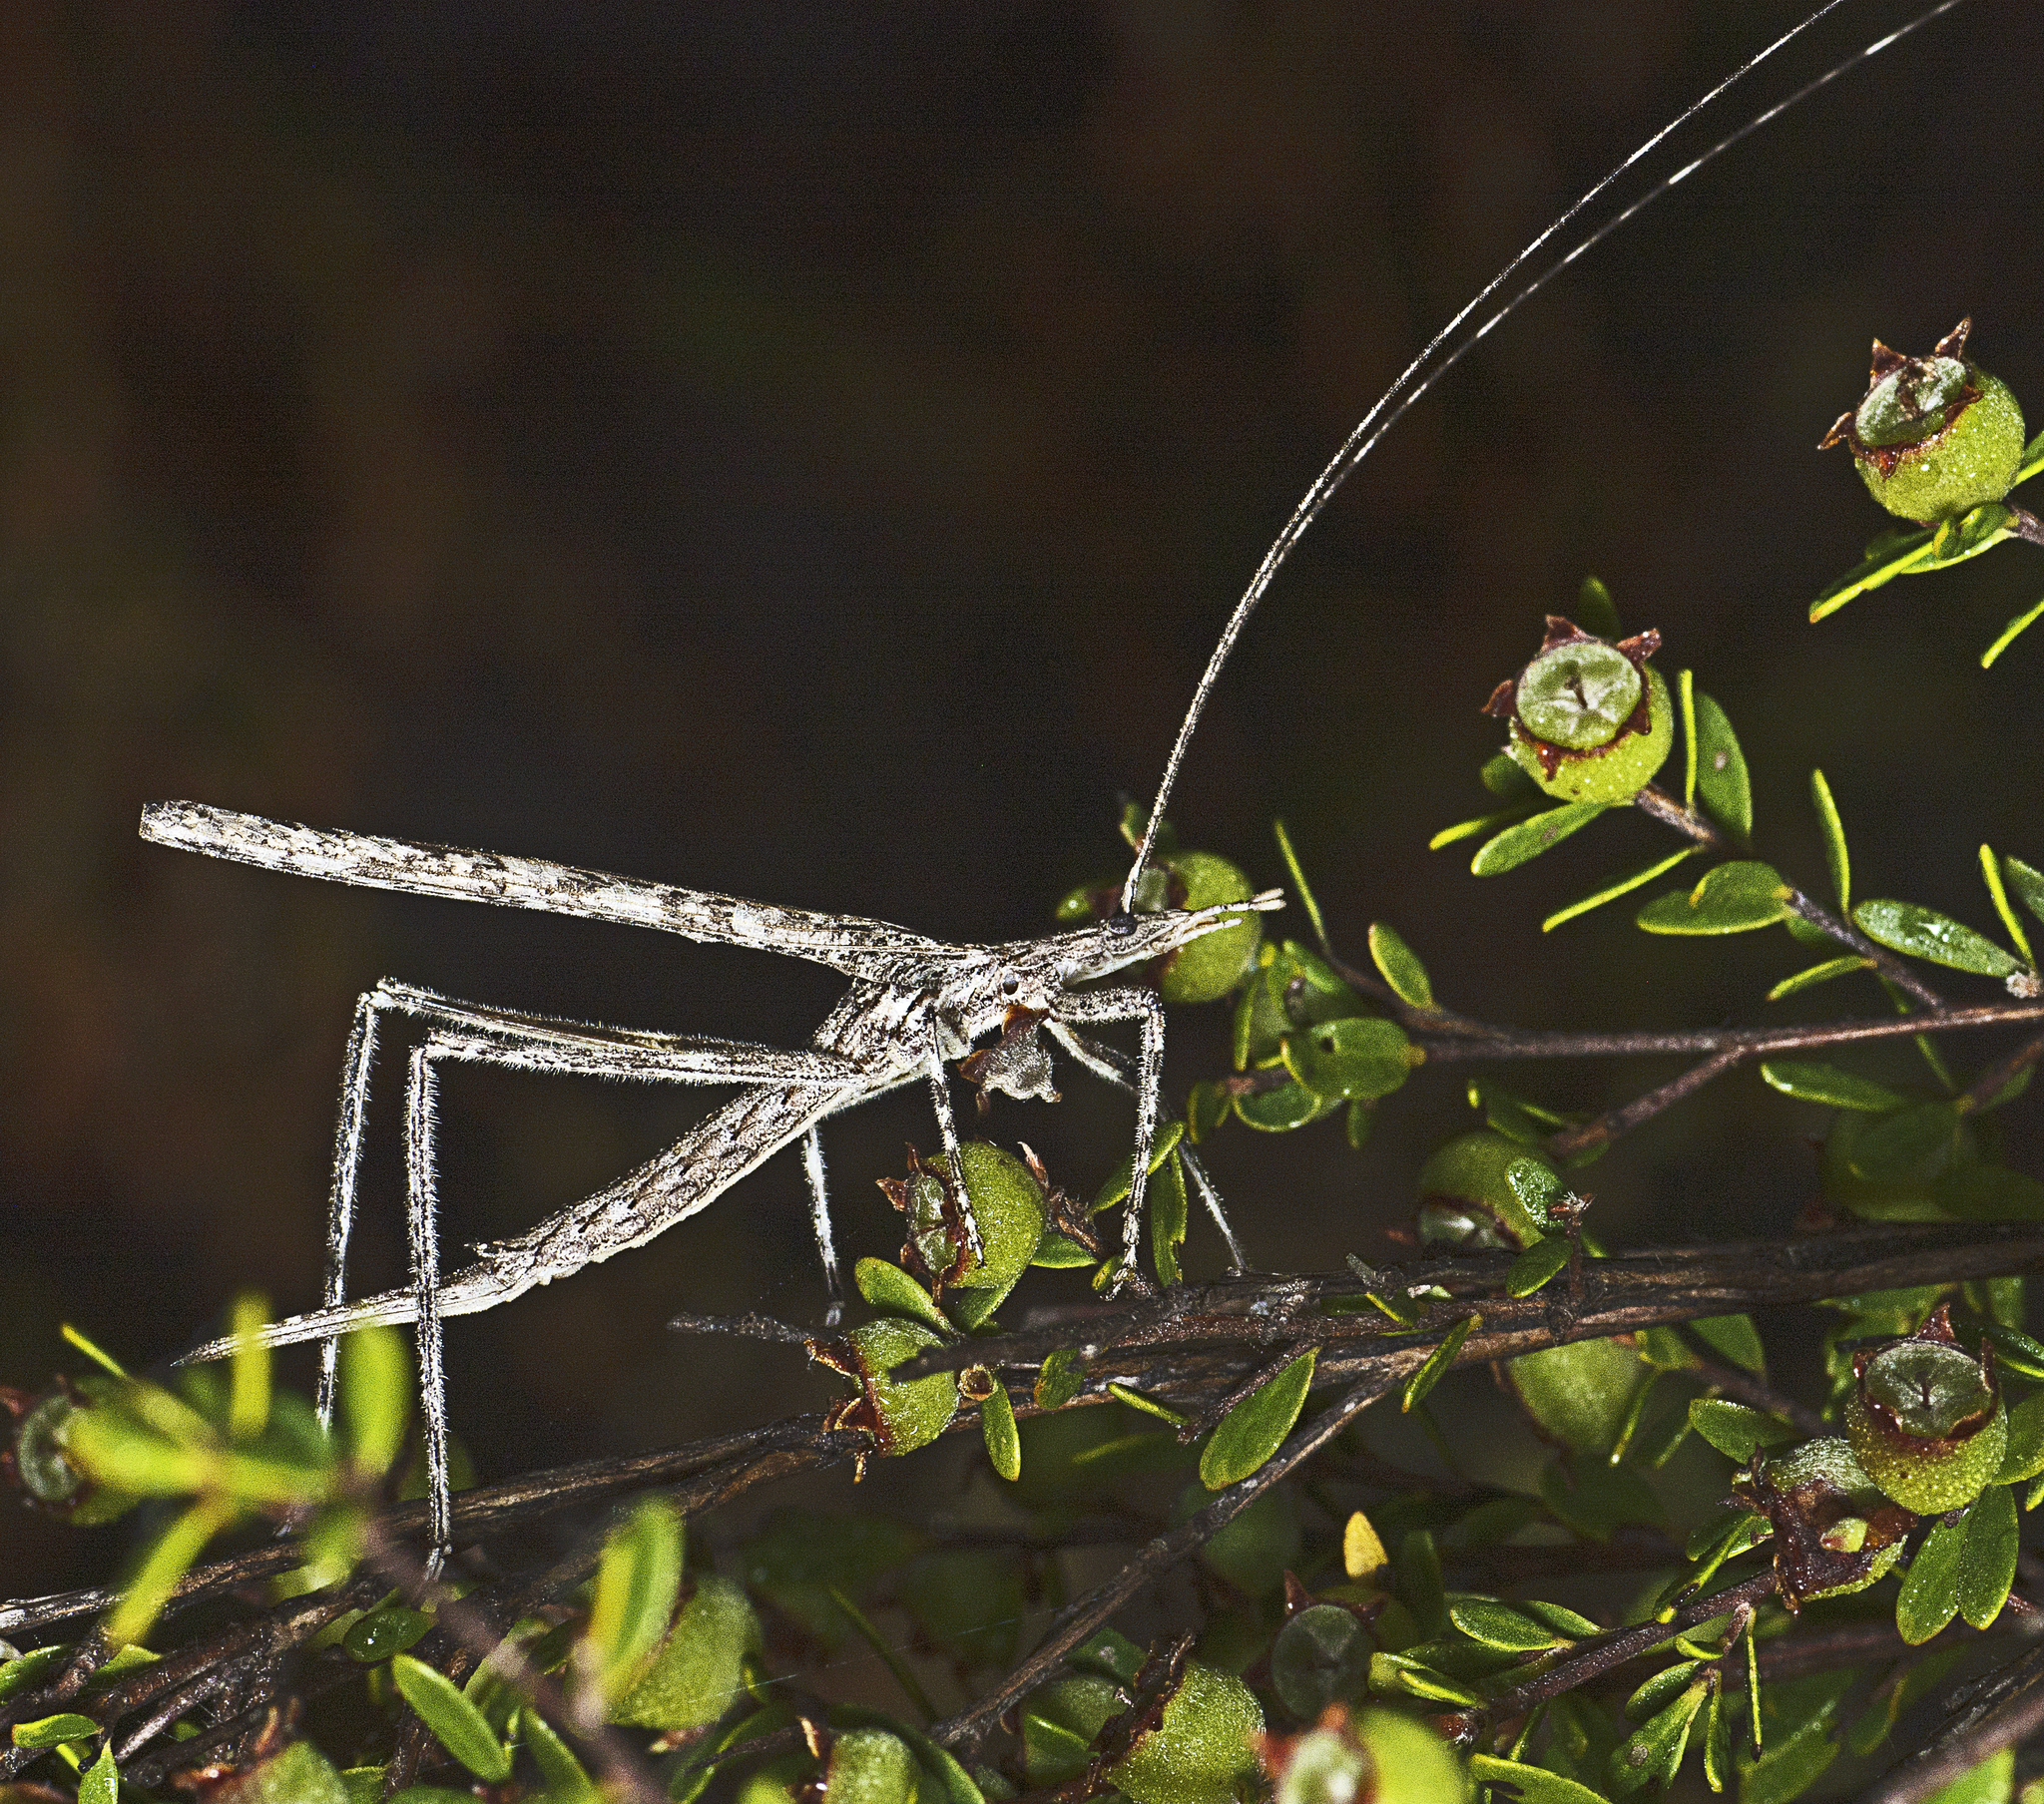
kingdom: Animalia
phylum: Arthropoda
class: Insecta
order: Orthoptera
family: Tettigoniidae
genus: Zaprochilus
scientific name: Zaprochilus australis
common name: Australian twig-mimicking katydid
